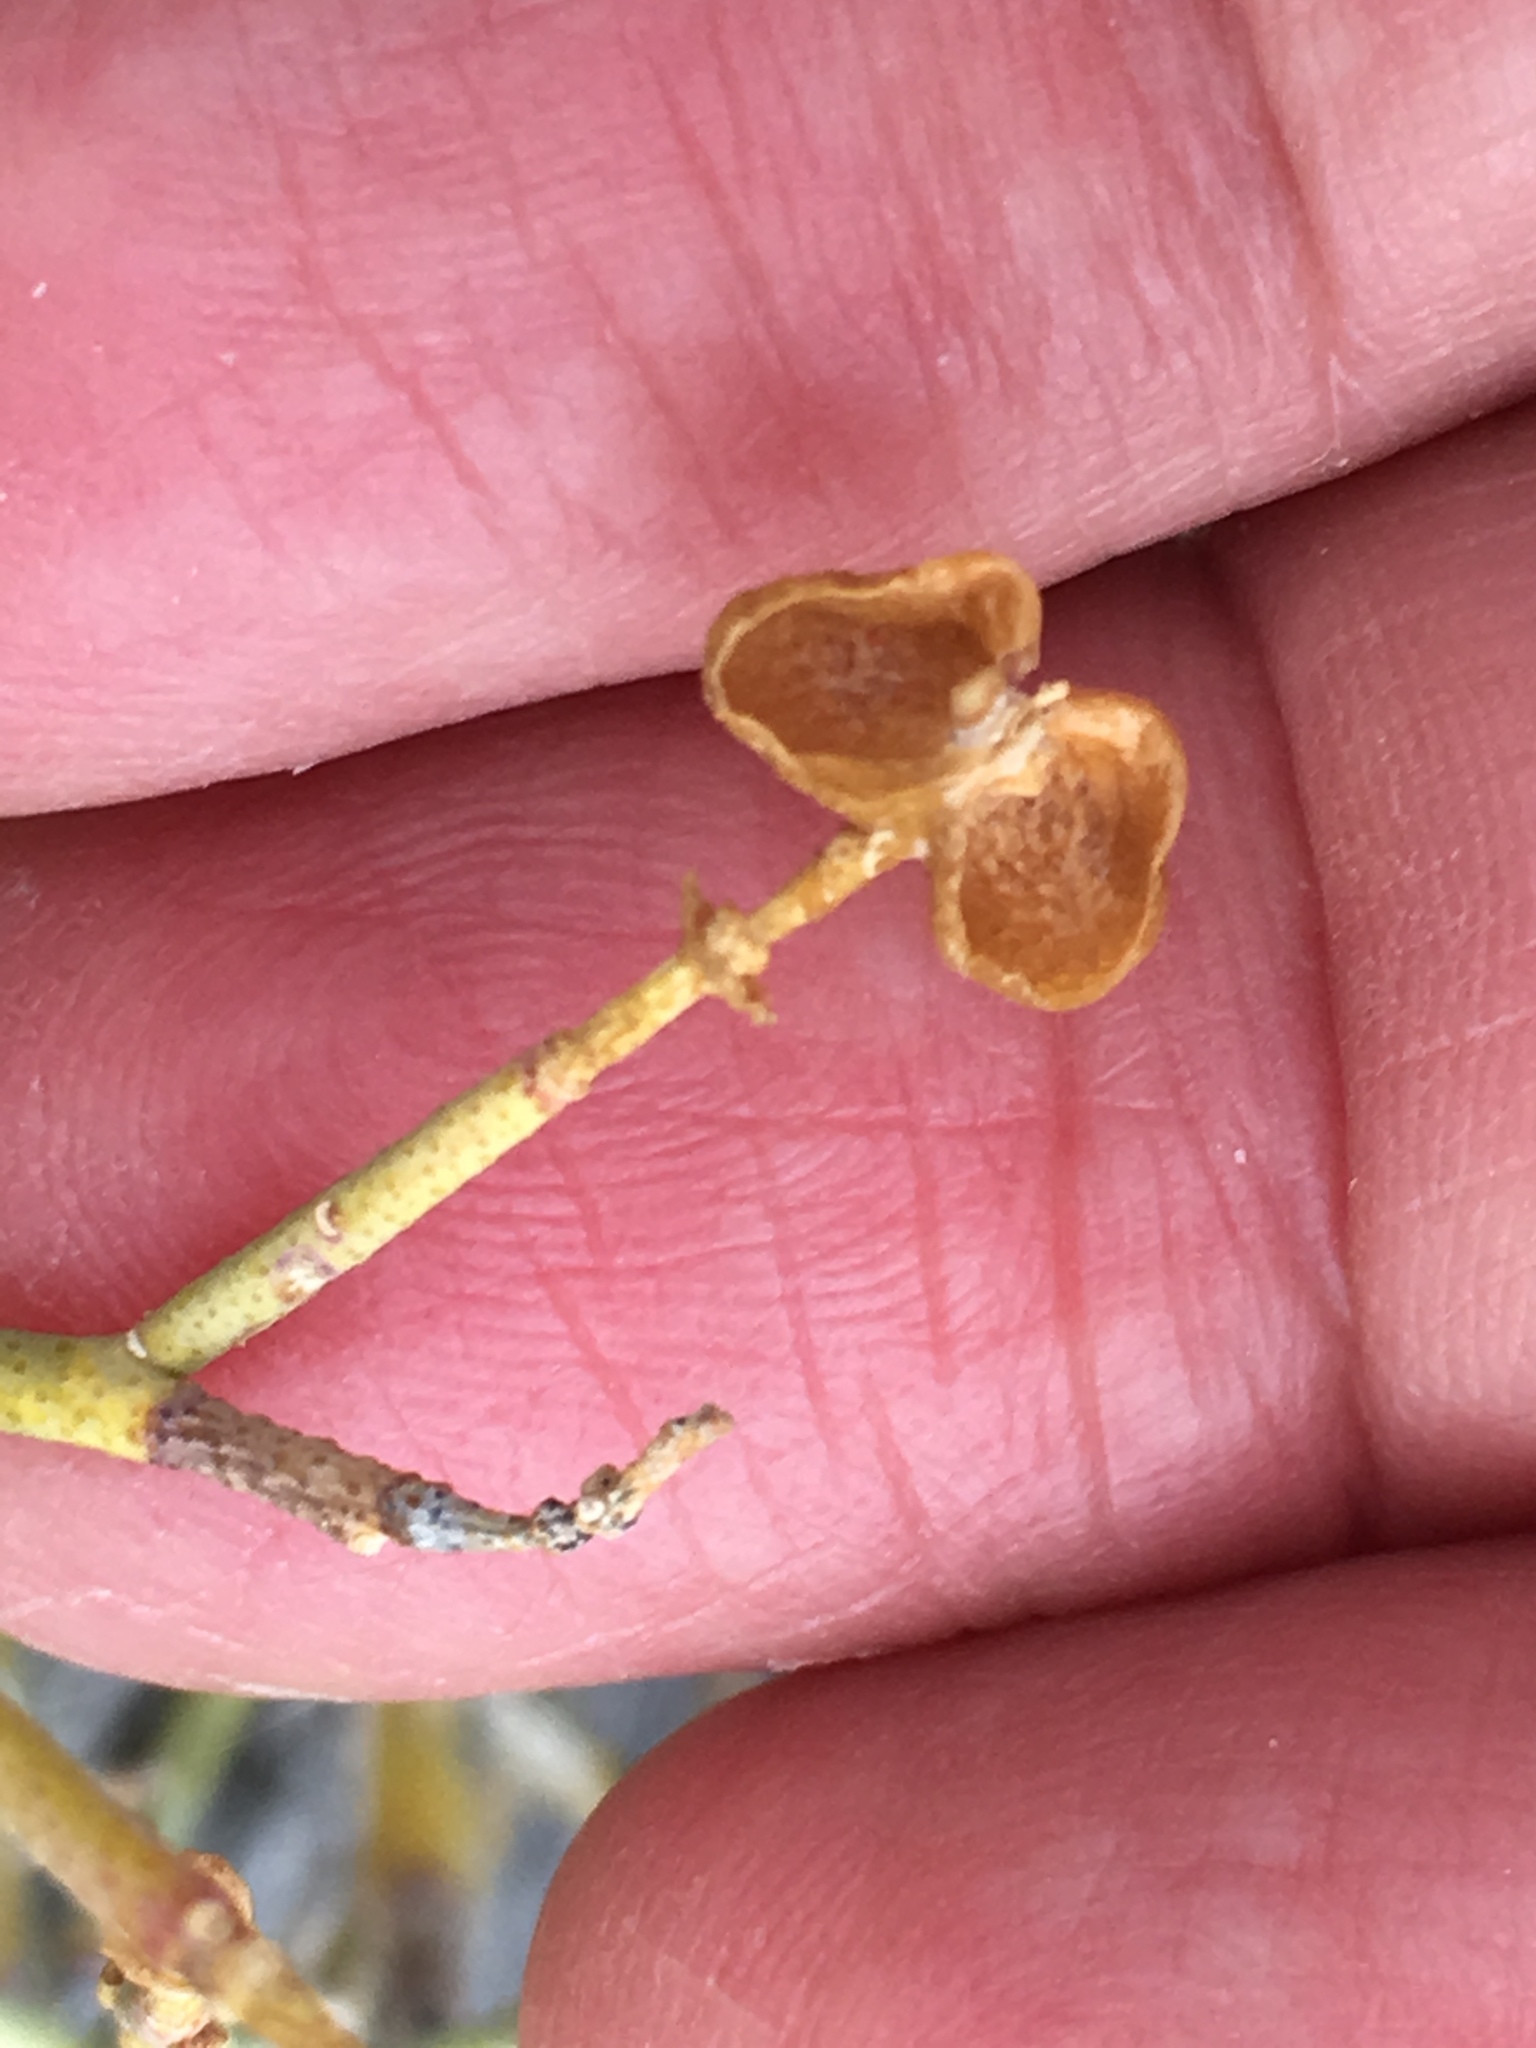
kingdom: Plantae
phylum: Tracheophyta
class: Magnoliopsida
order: Sapindales
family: Rutaceae
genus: Thamnosma
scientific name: Thamnosma montana
